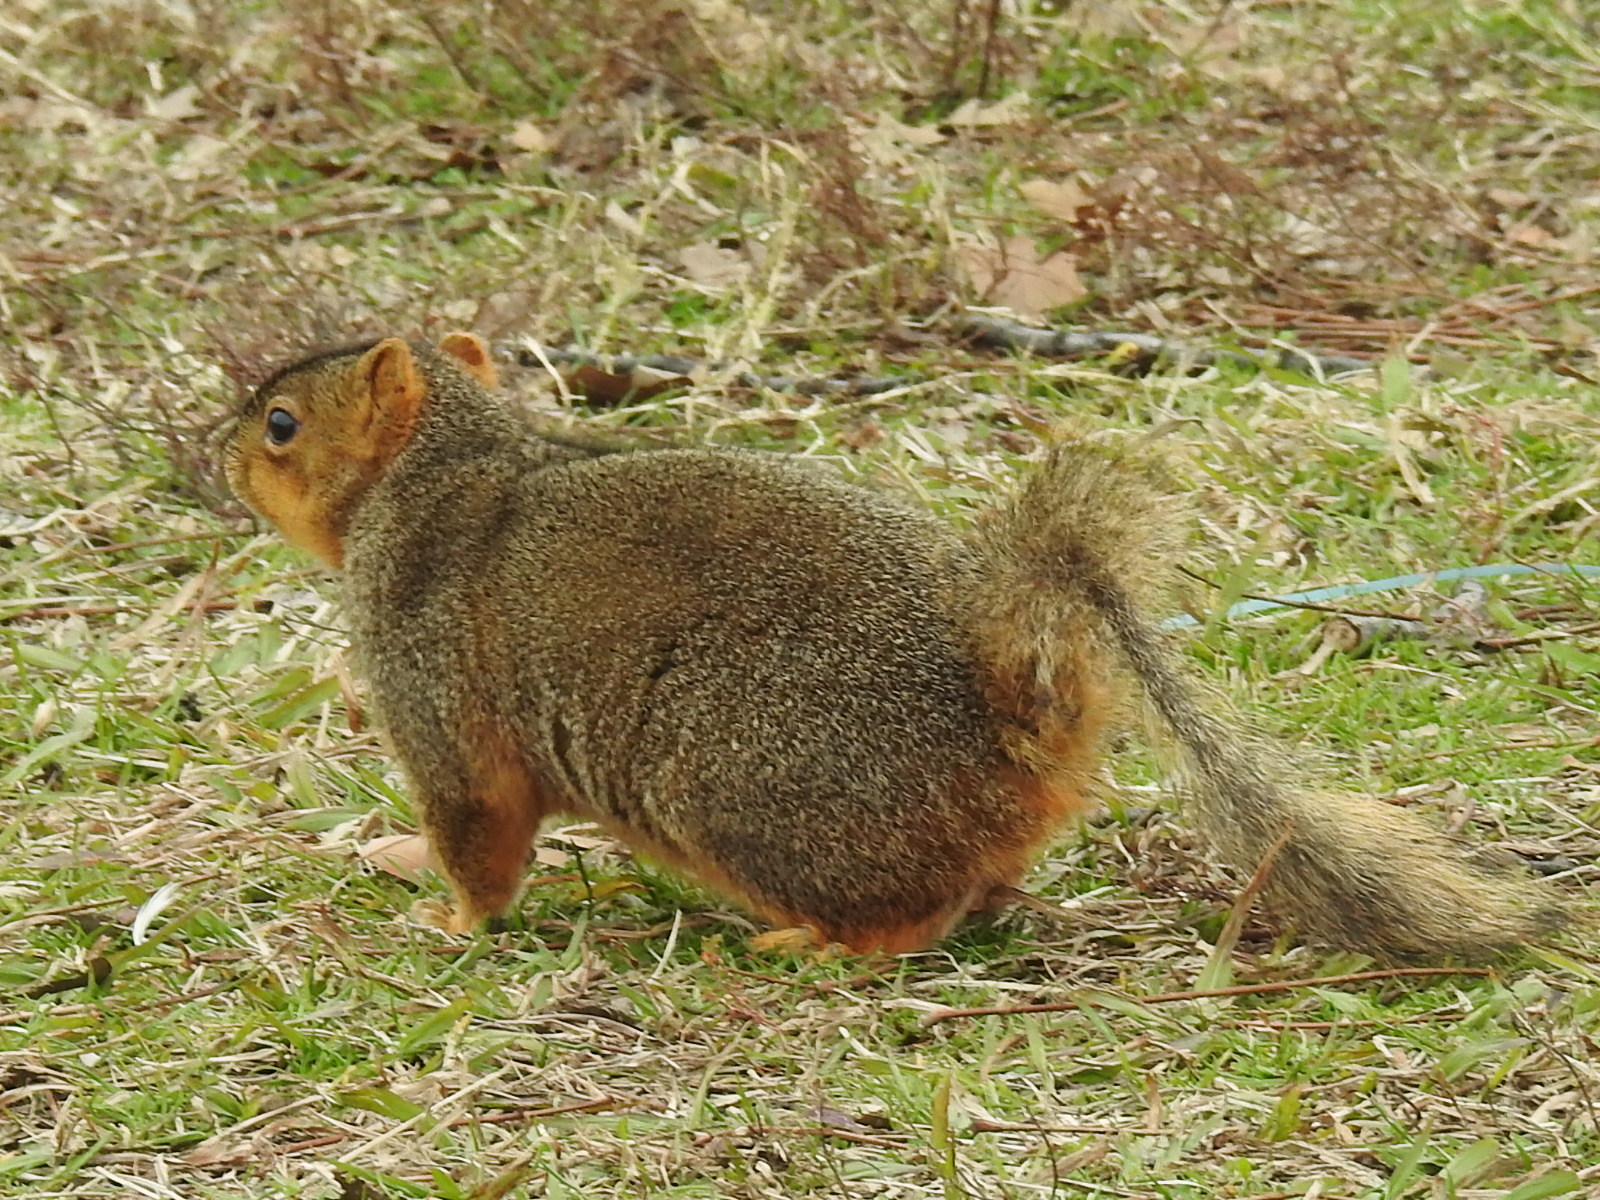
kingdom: Animalia
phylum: Chordata
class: Mammalia
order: Rodentia
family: Sciuridae
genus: Sciurus
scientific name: Sciurus niger
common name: Fox squirrel
